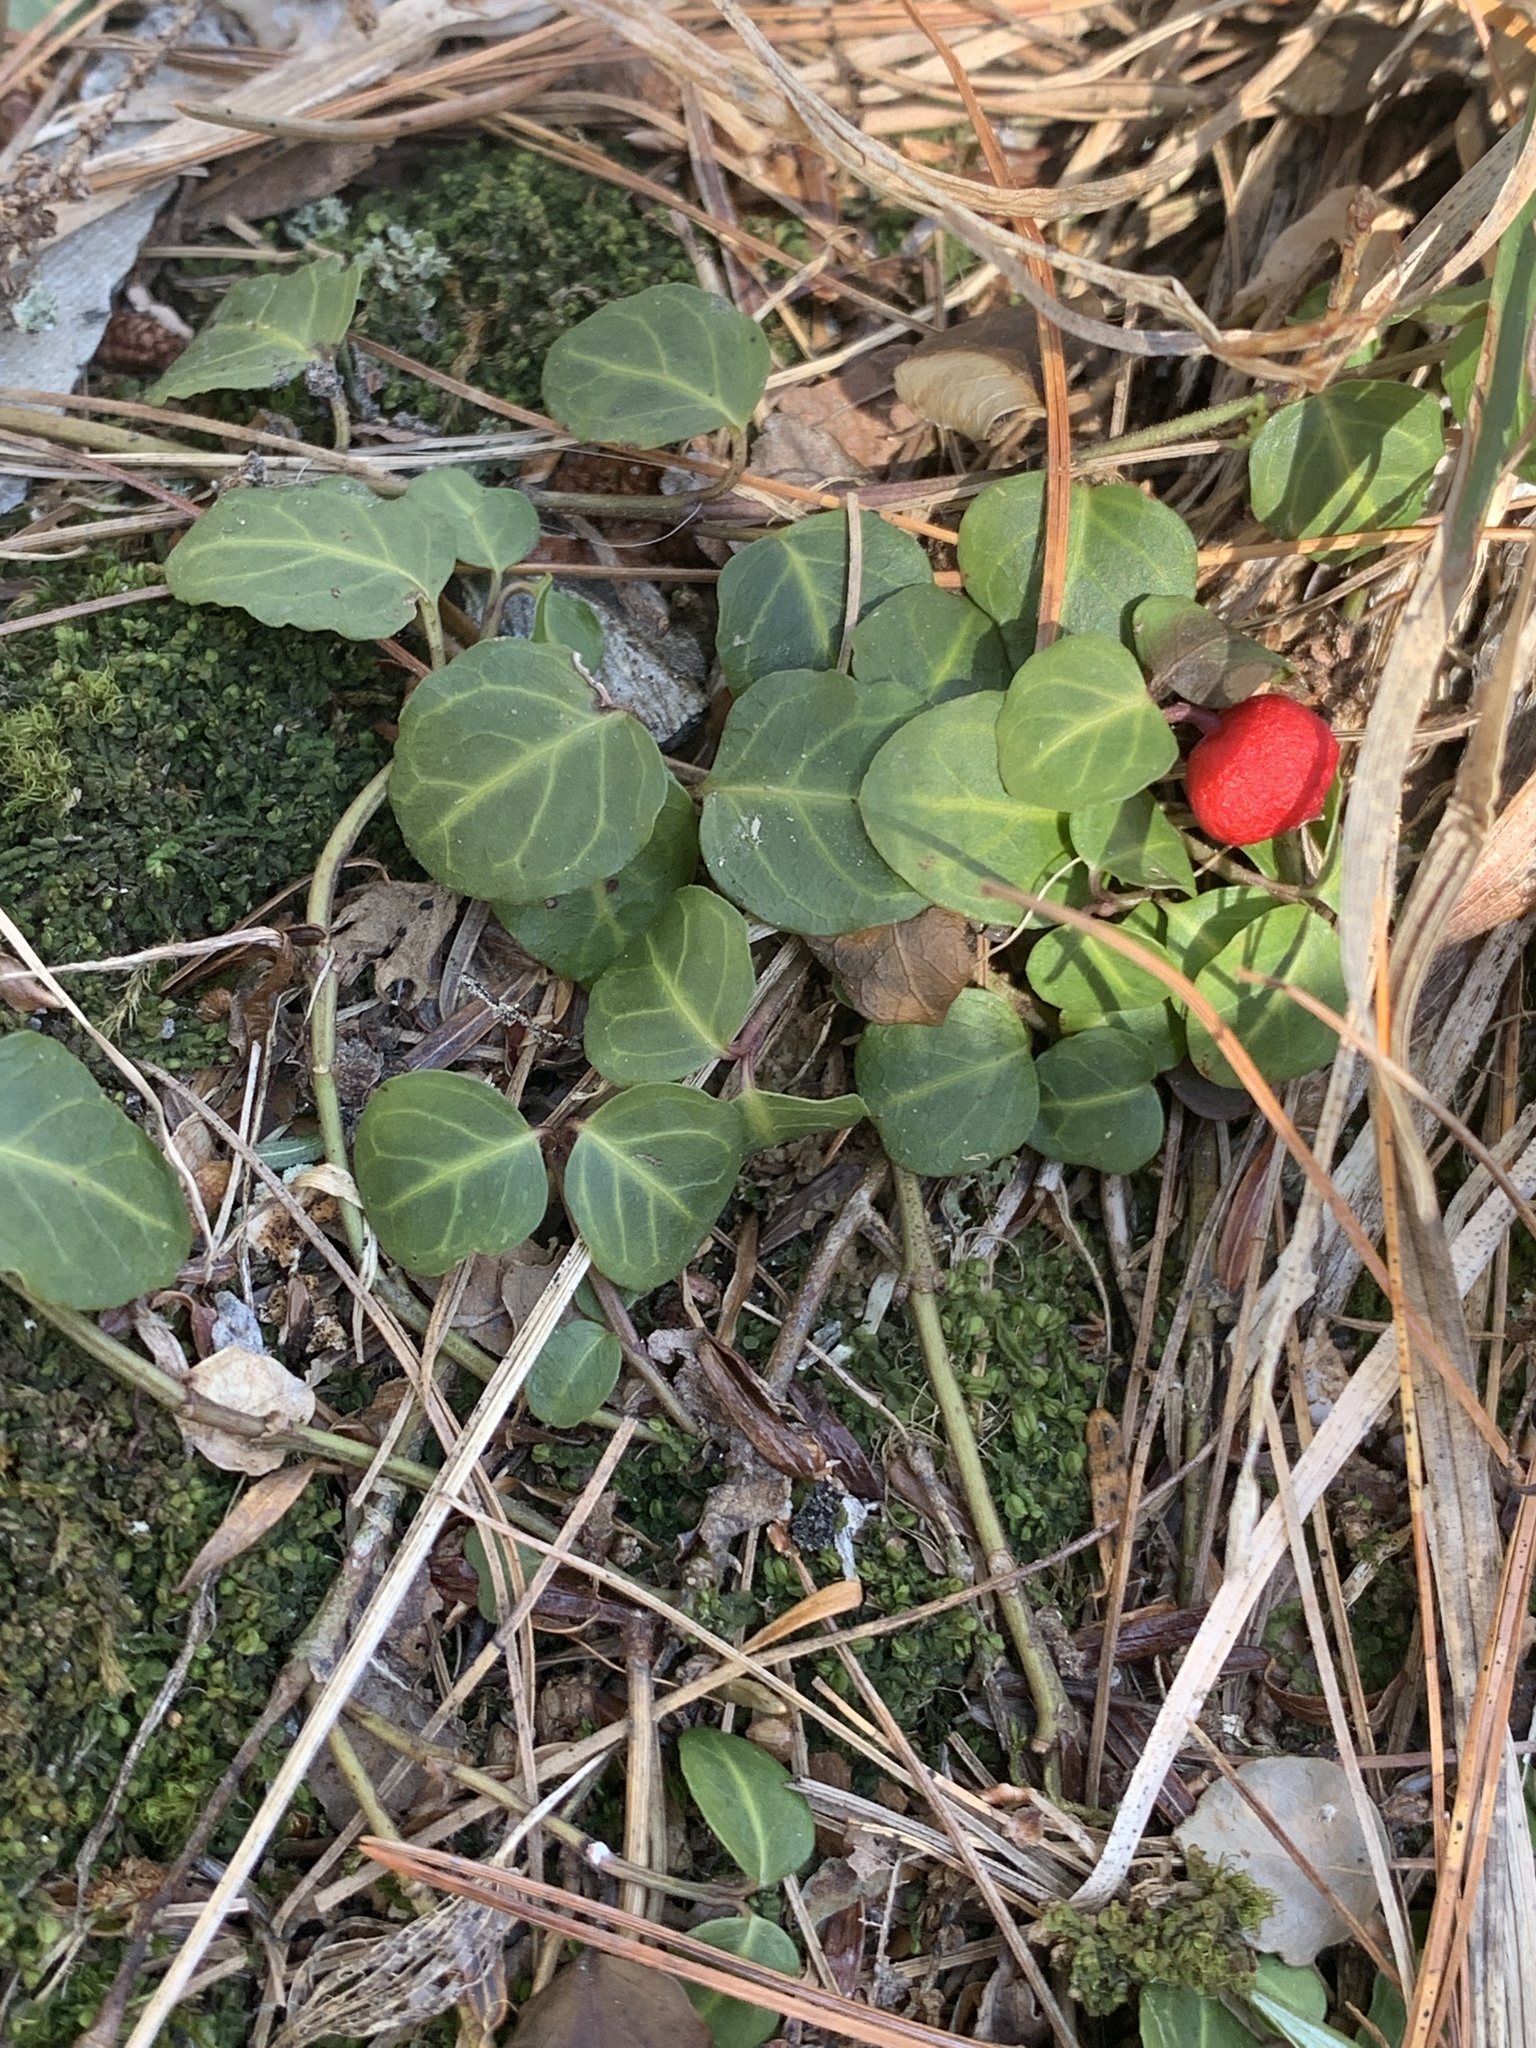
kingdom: Plantae
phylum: Tracheophyta
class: Magnoliopsida
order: Gentianales
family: Rubiaceae
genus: Mitchella
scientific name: Mitchella repens
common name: Partridge-berry
